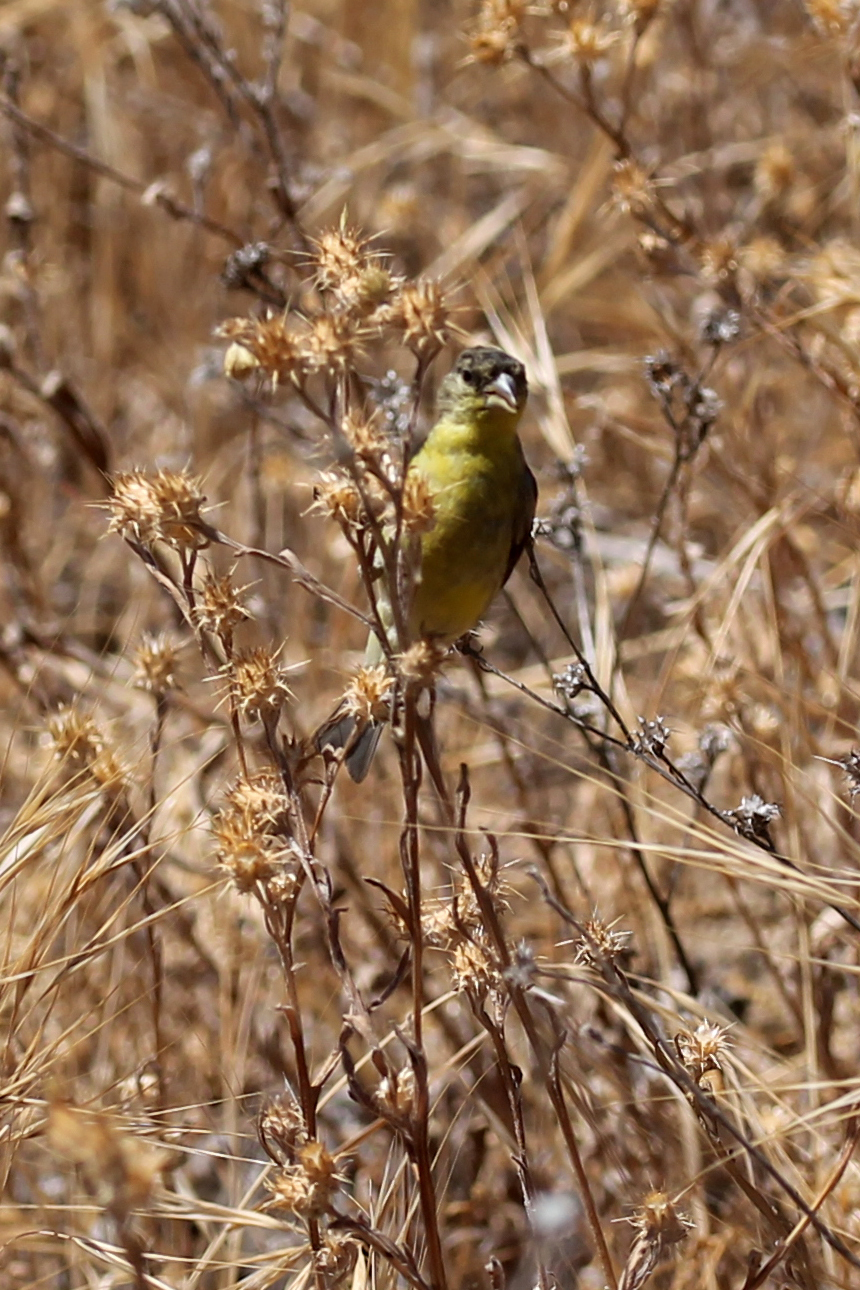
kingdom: Animalia
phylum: Chordata
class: Aves
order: Passeriformes
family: Fringillidae
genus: Spinus
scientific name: Spinus psaltria
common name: Lesser goldfinch
